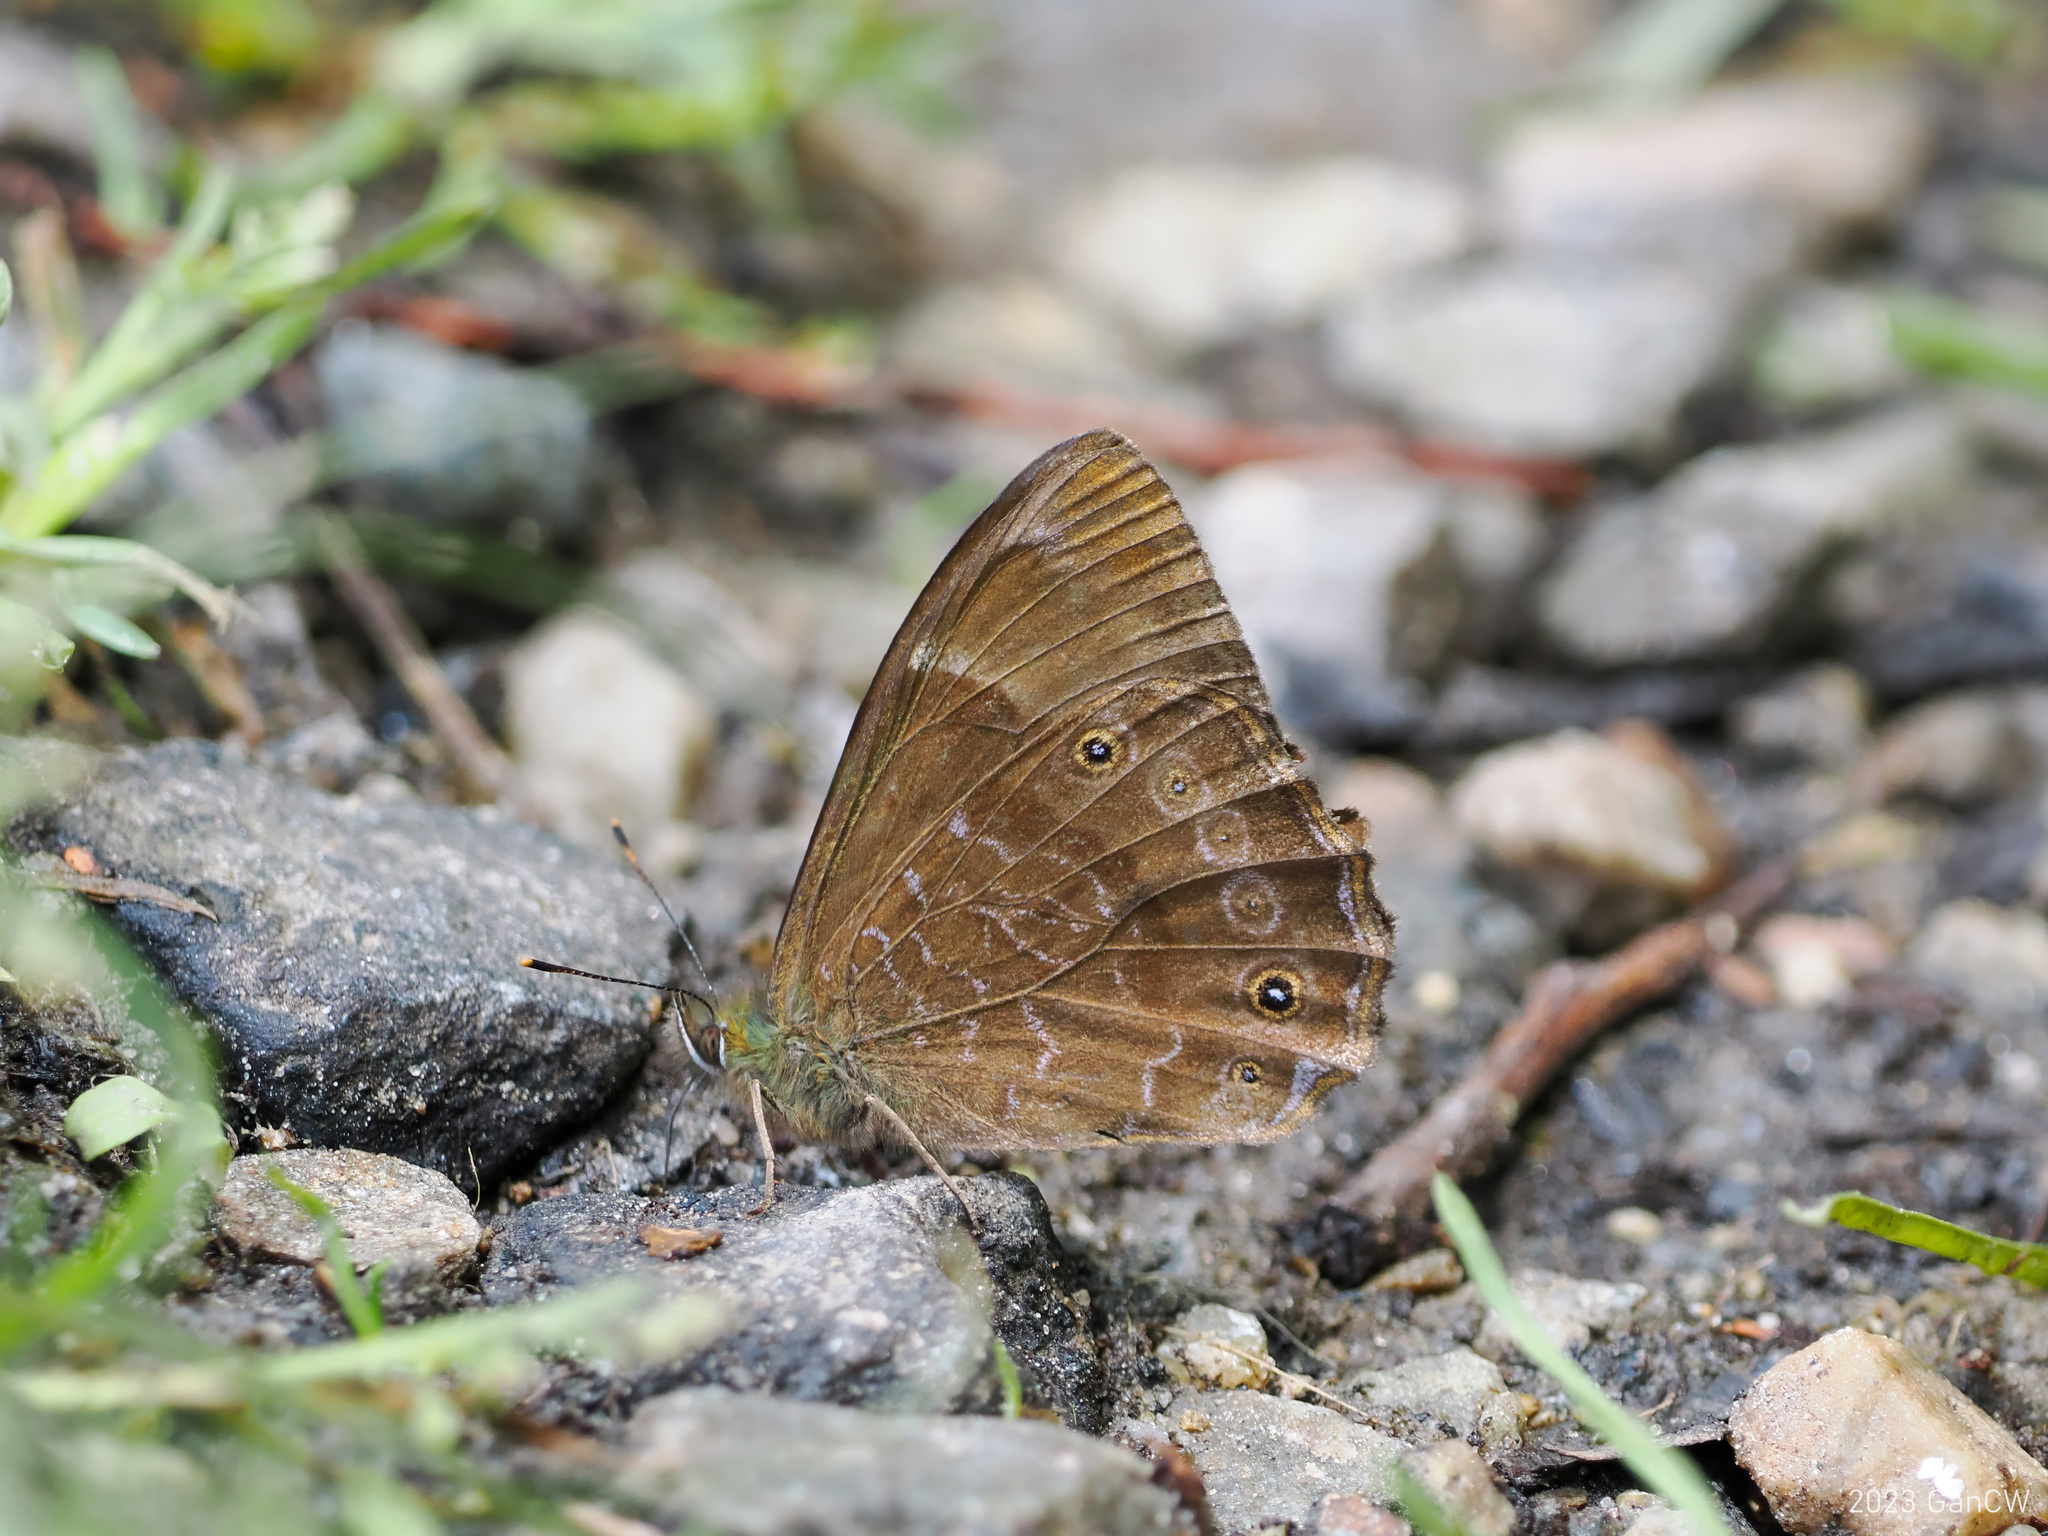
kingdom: Animalia
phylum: Arthropoda
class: Insecta
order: Lepidoptera
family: Nymphalidae
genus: Lethe
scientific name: Lethe sidonis
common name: Common woodbrown butterfly
